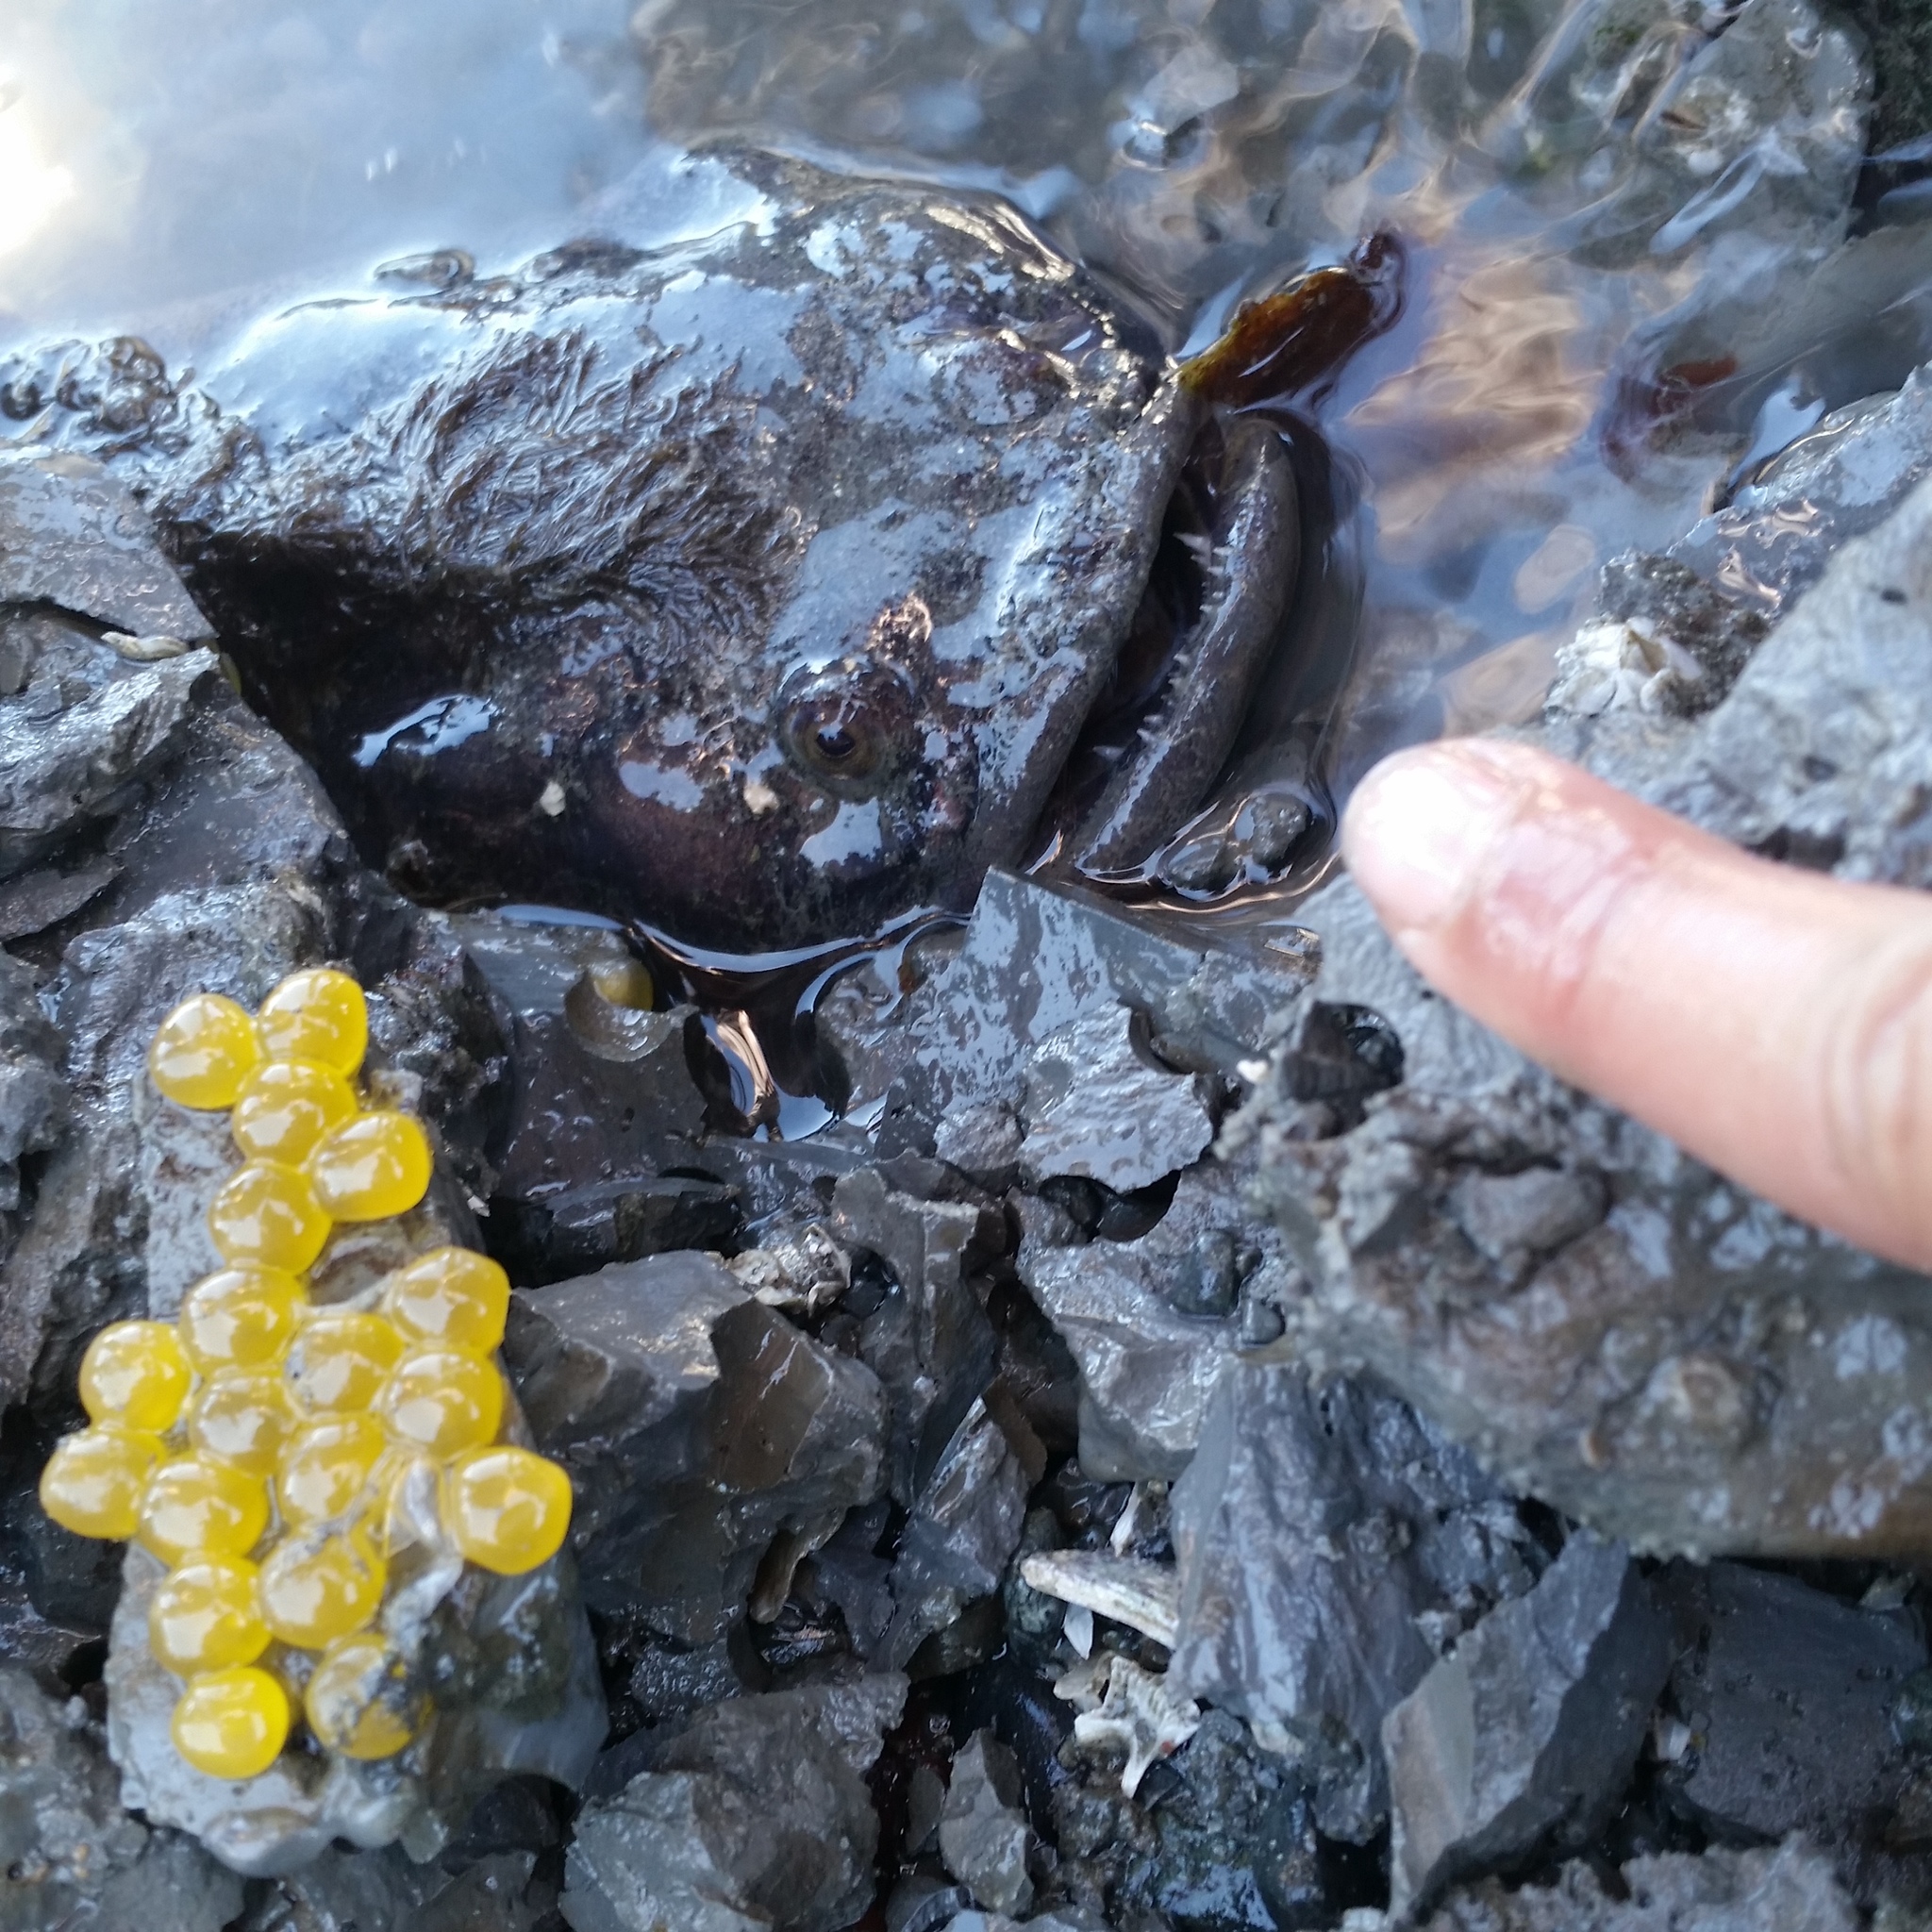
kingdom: Animalia
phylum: Chordata
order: Batrachoidiformes
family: Batrachoididae
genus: Porichthys
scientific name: Porichthys notatus
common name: Plainfin midshipman
